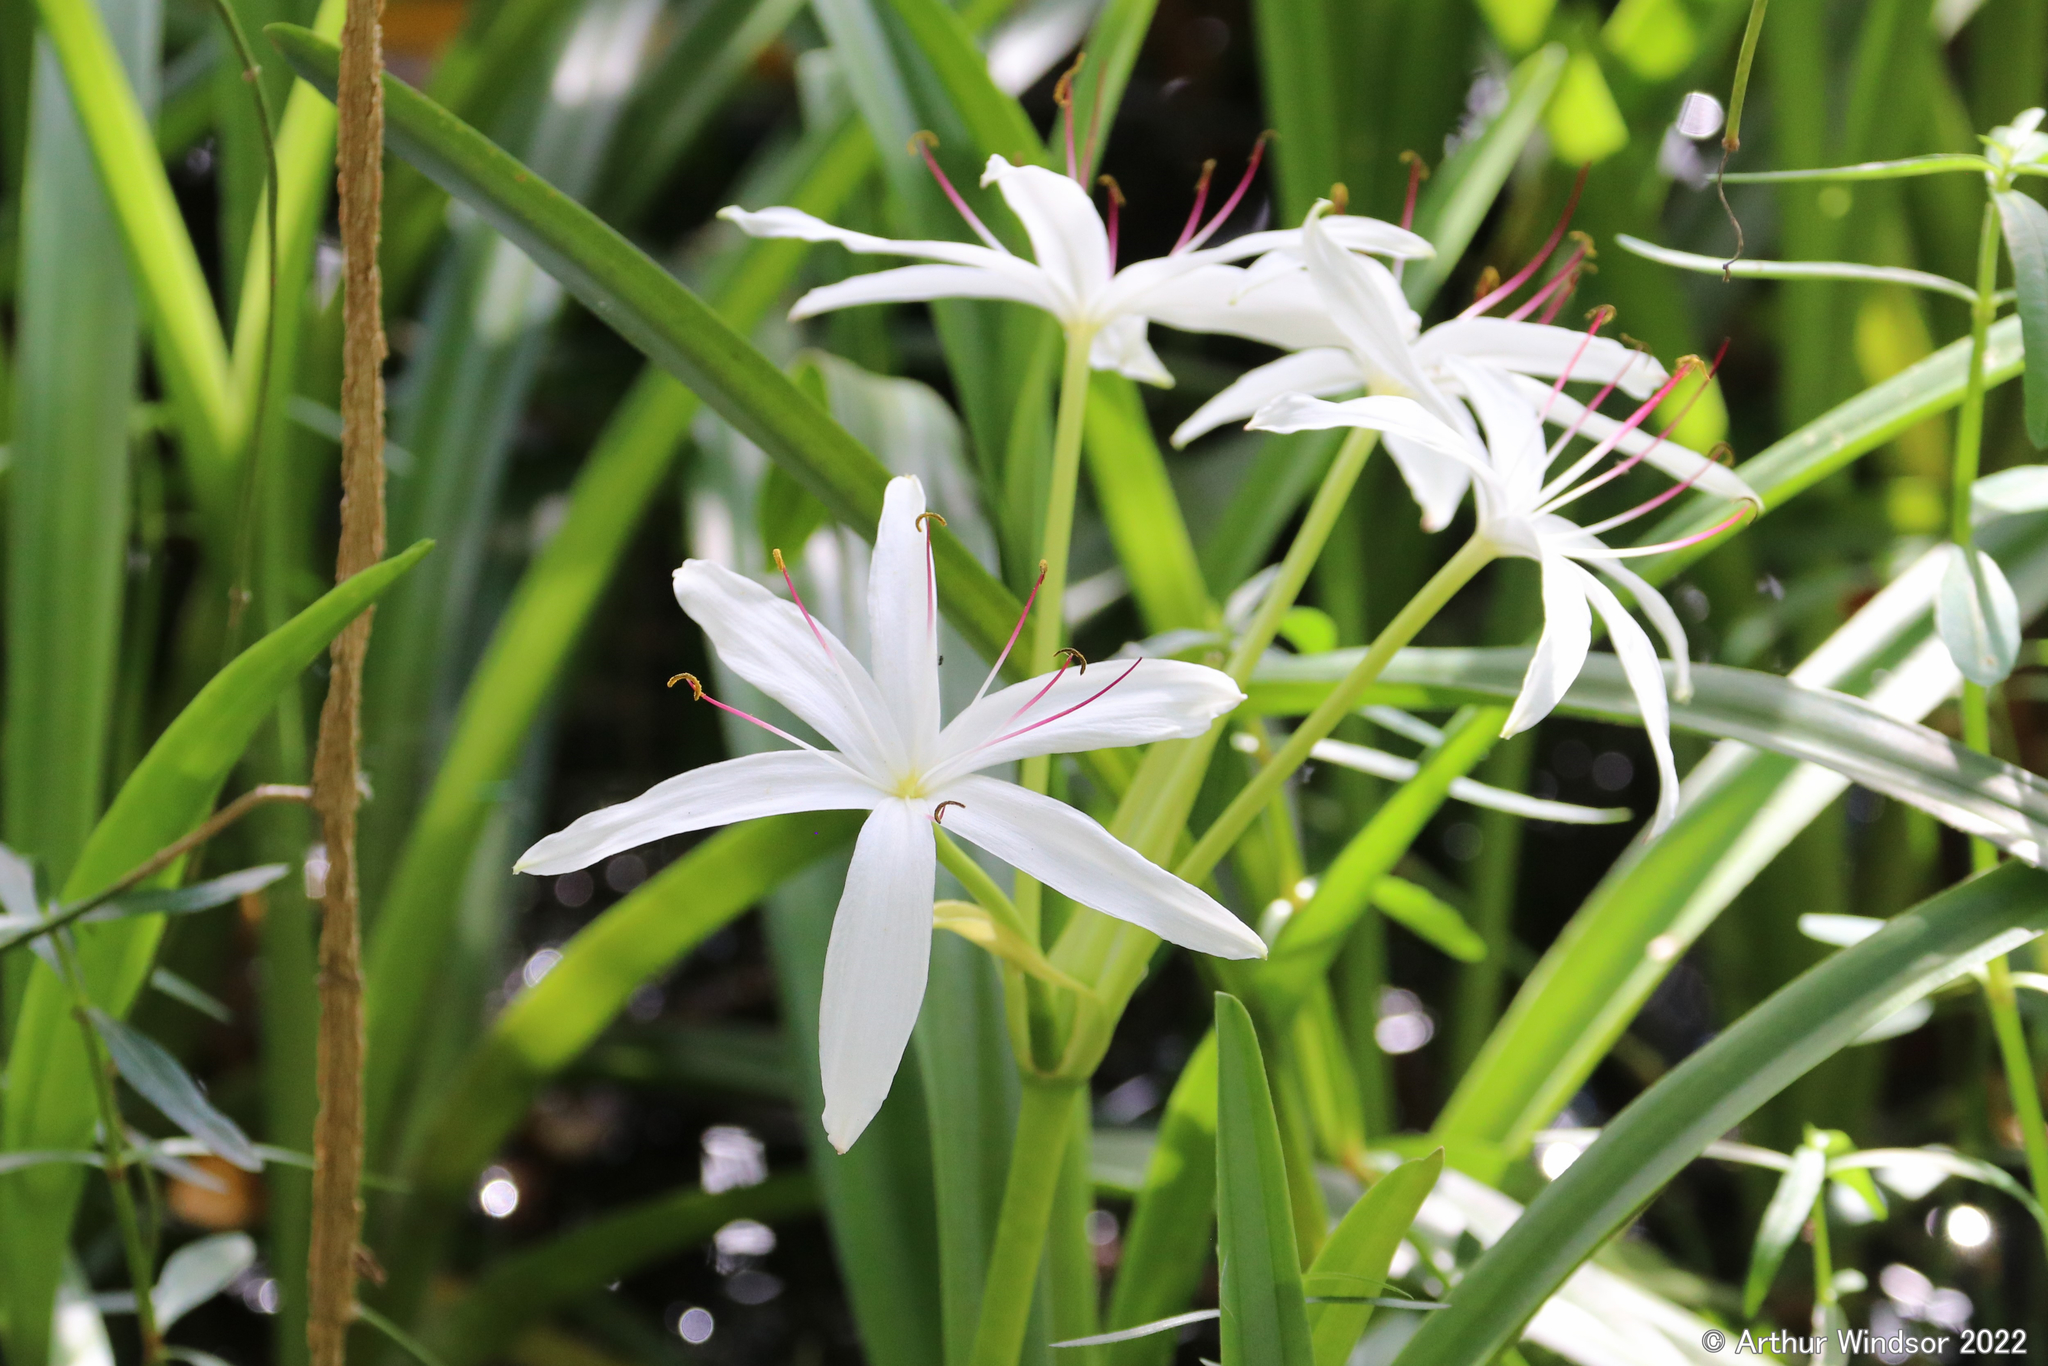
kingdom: Plantae
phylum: Tracheophyta
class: Liliopsida
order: Asparagales
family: Amaryllidaceae
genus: Crinum
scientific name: Crinum americanum
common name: Florida swamp-lily
